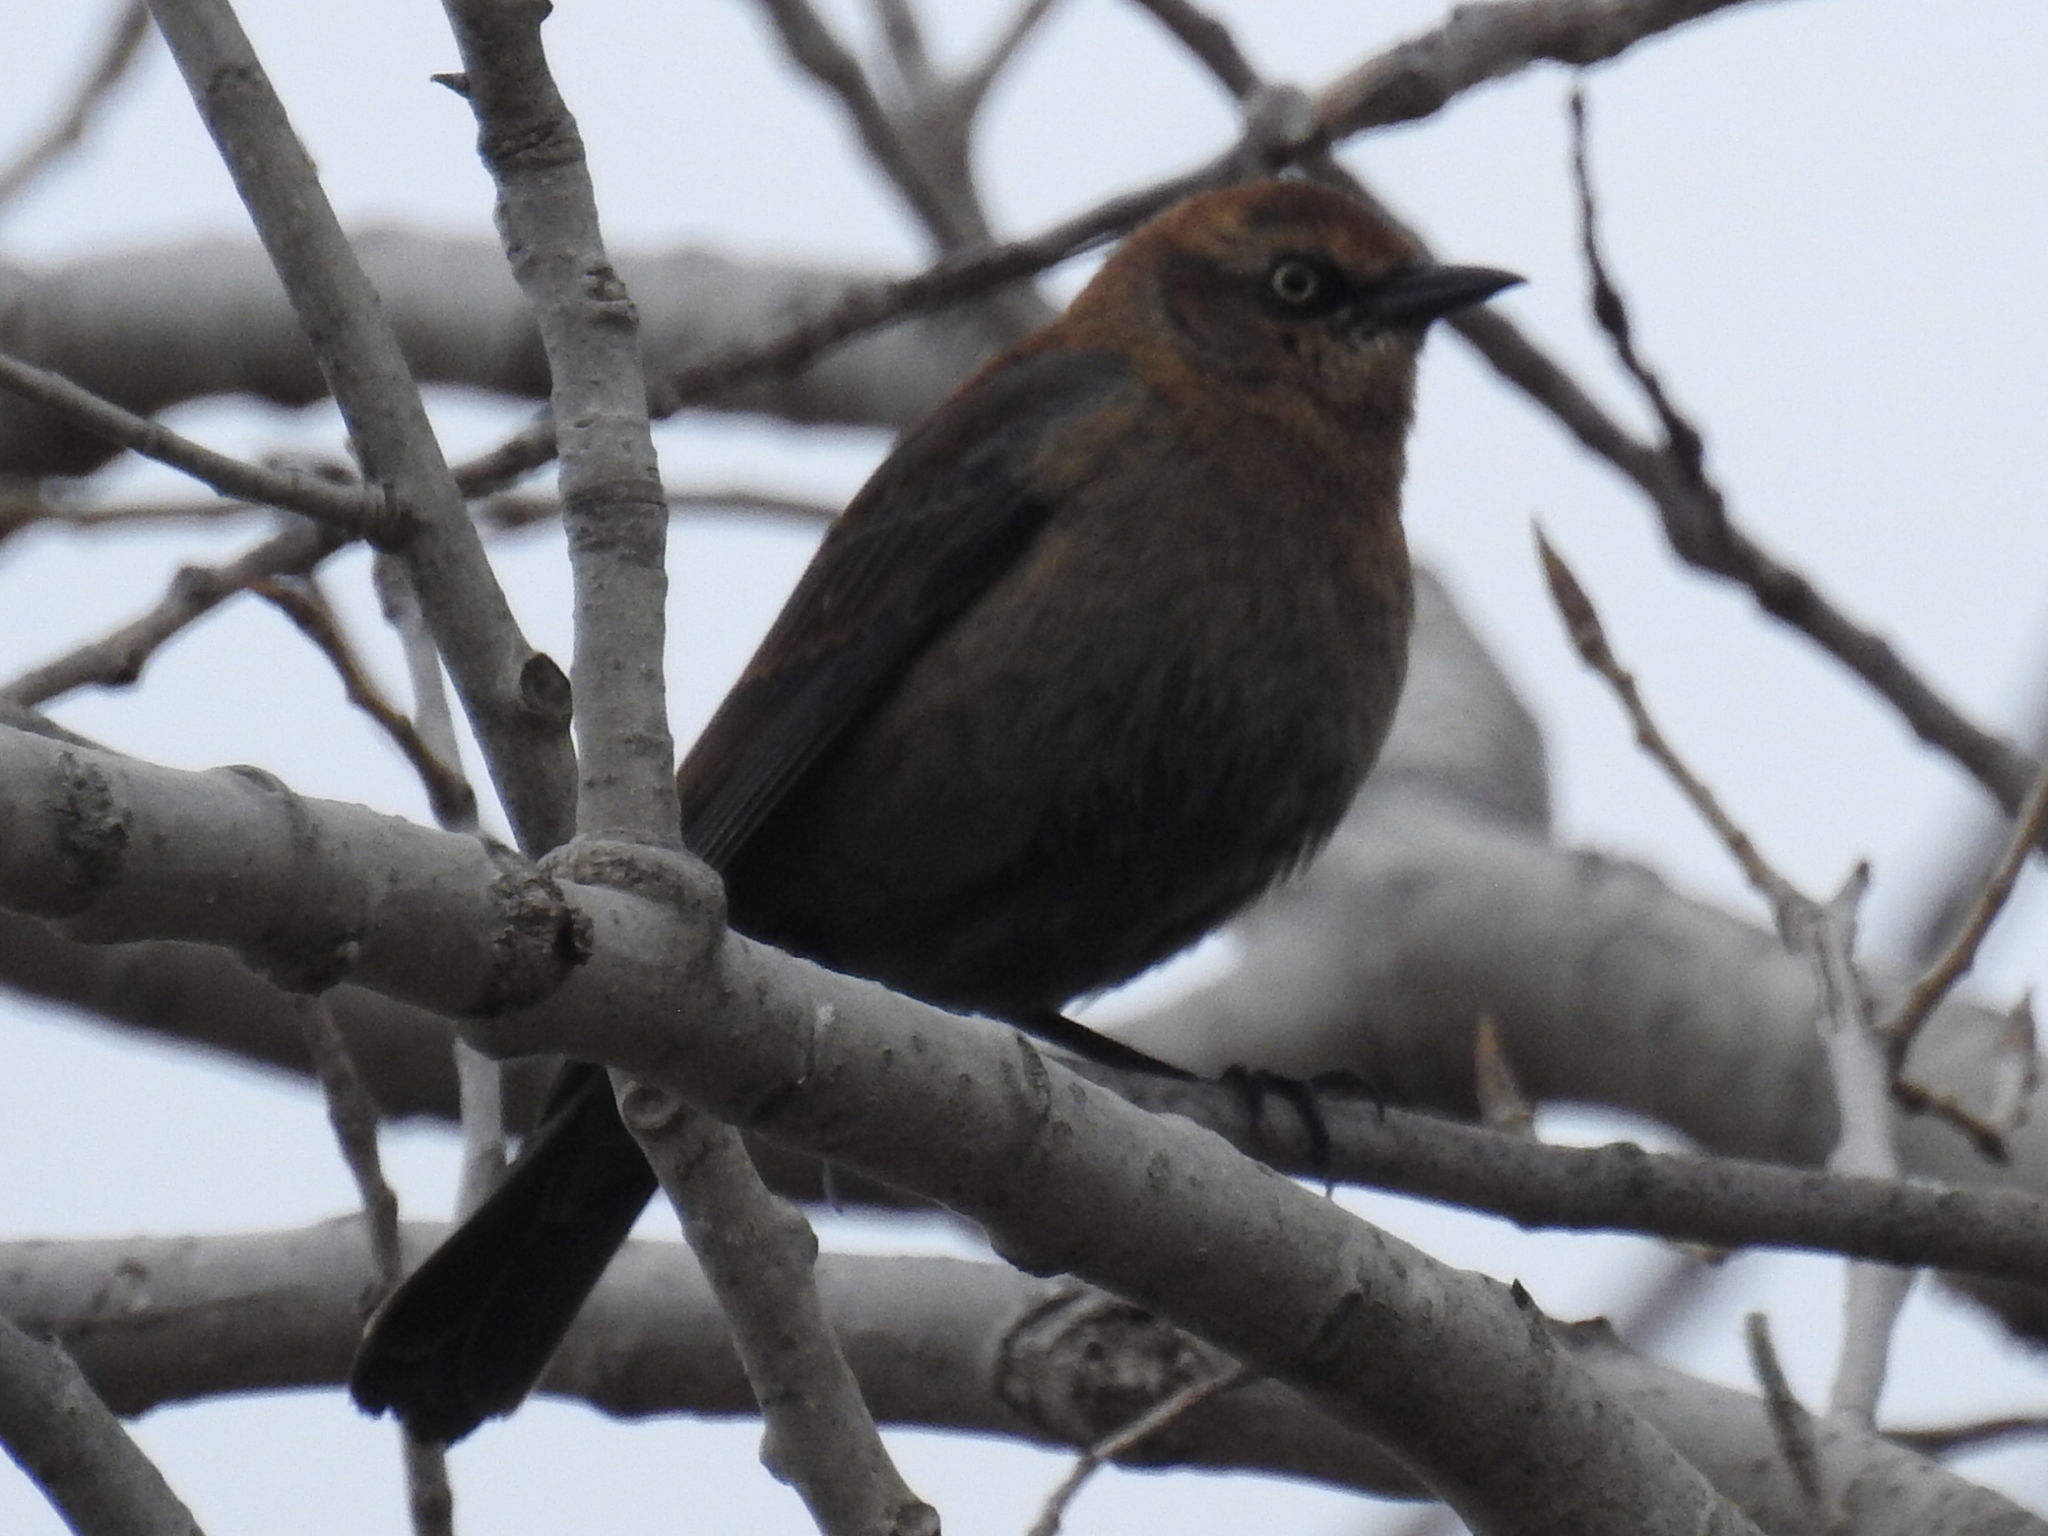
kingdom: Animalia
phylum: Chordata
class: Aves
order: Passeriformes
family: Icteridae
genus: Euphagus
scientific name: Euphagus carolinus
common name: Rusty blackbird
